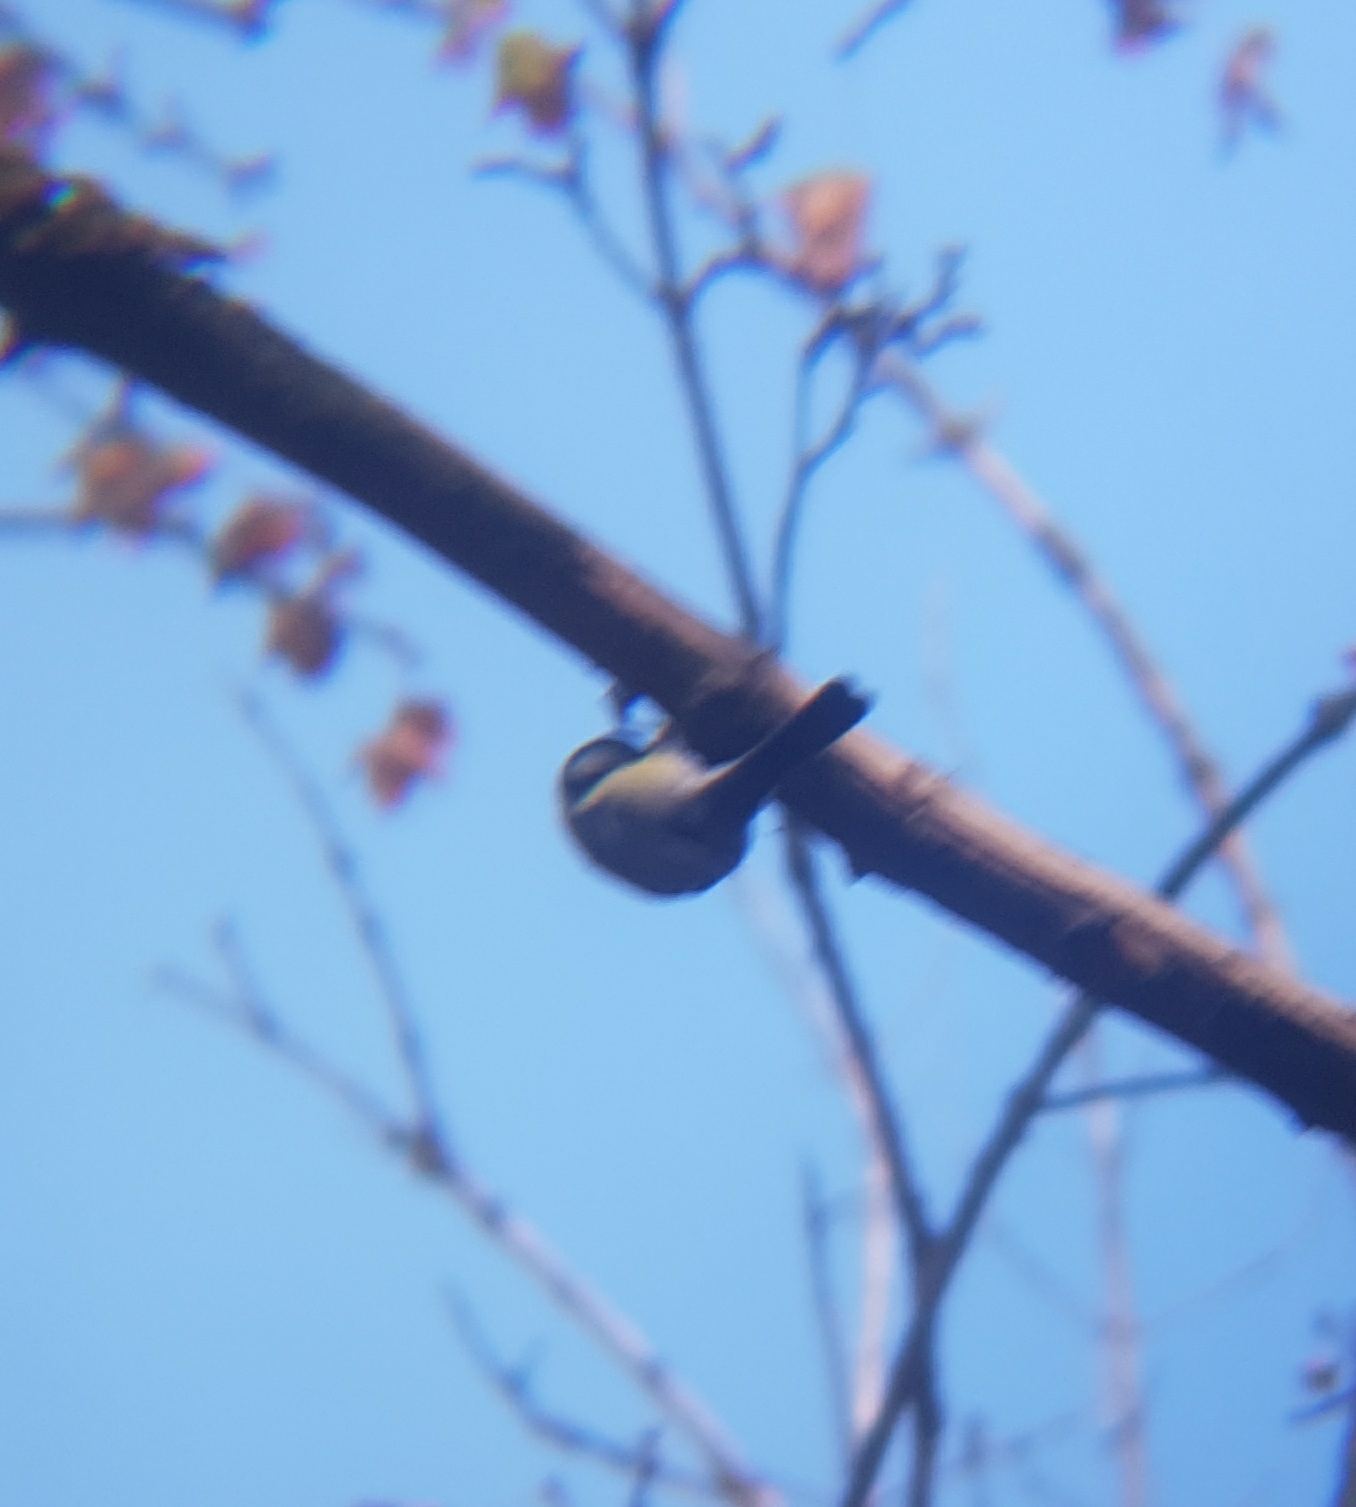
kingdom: Animalia
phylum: Chordata
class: Aves
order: Passeriformes
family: Paridae
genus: Parus
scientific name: Parus major
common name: Great tit
